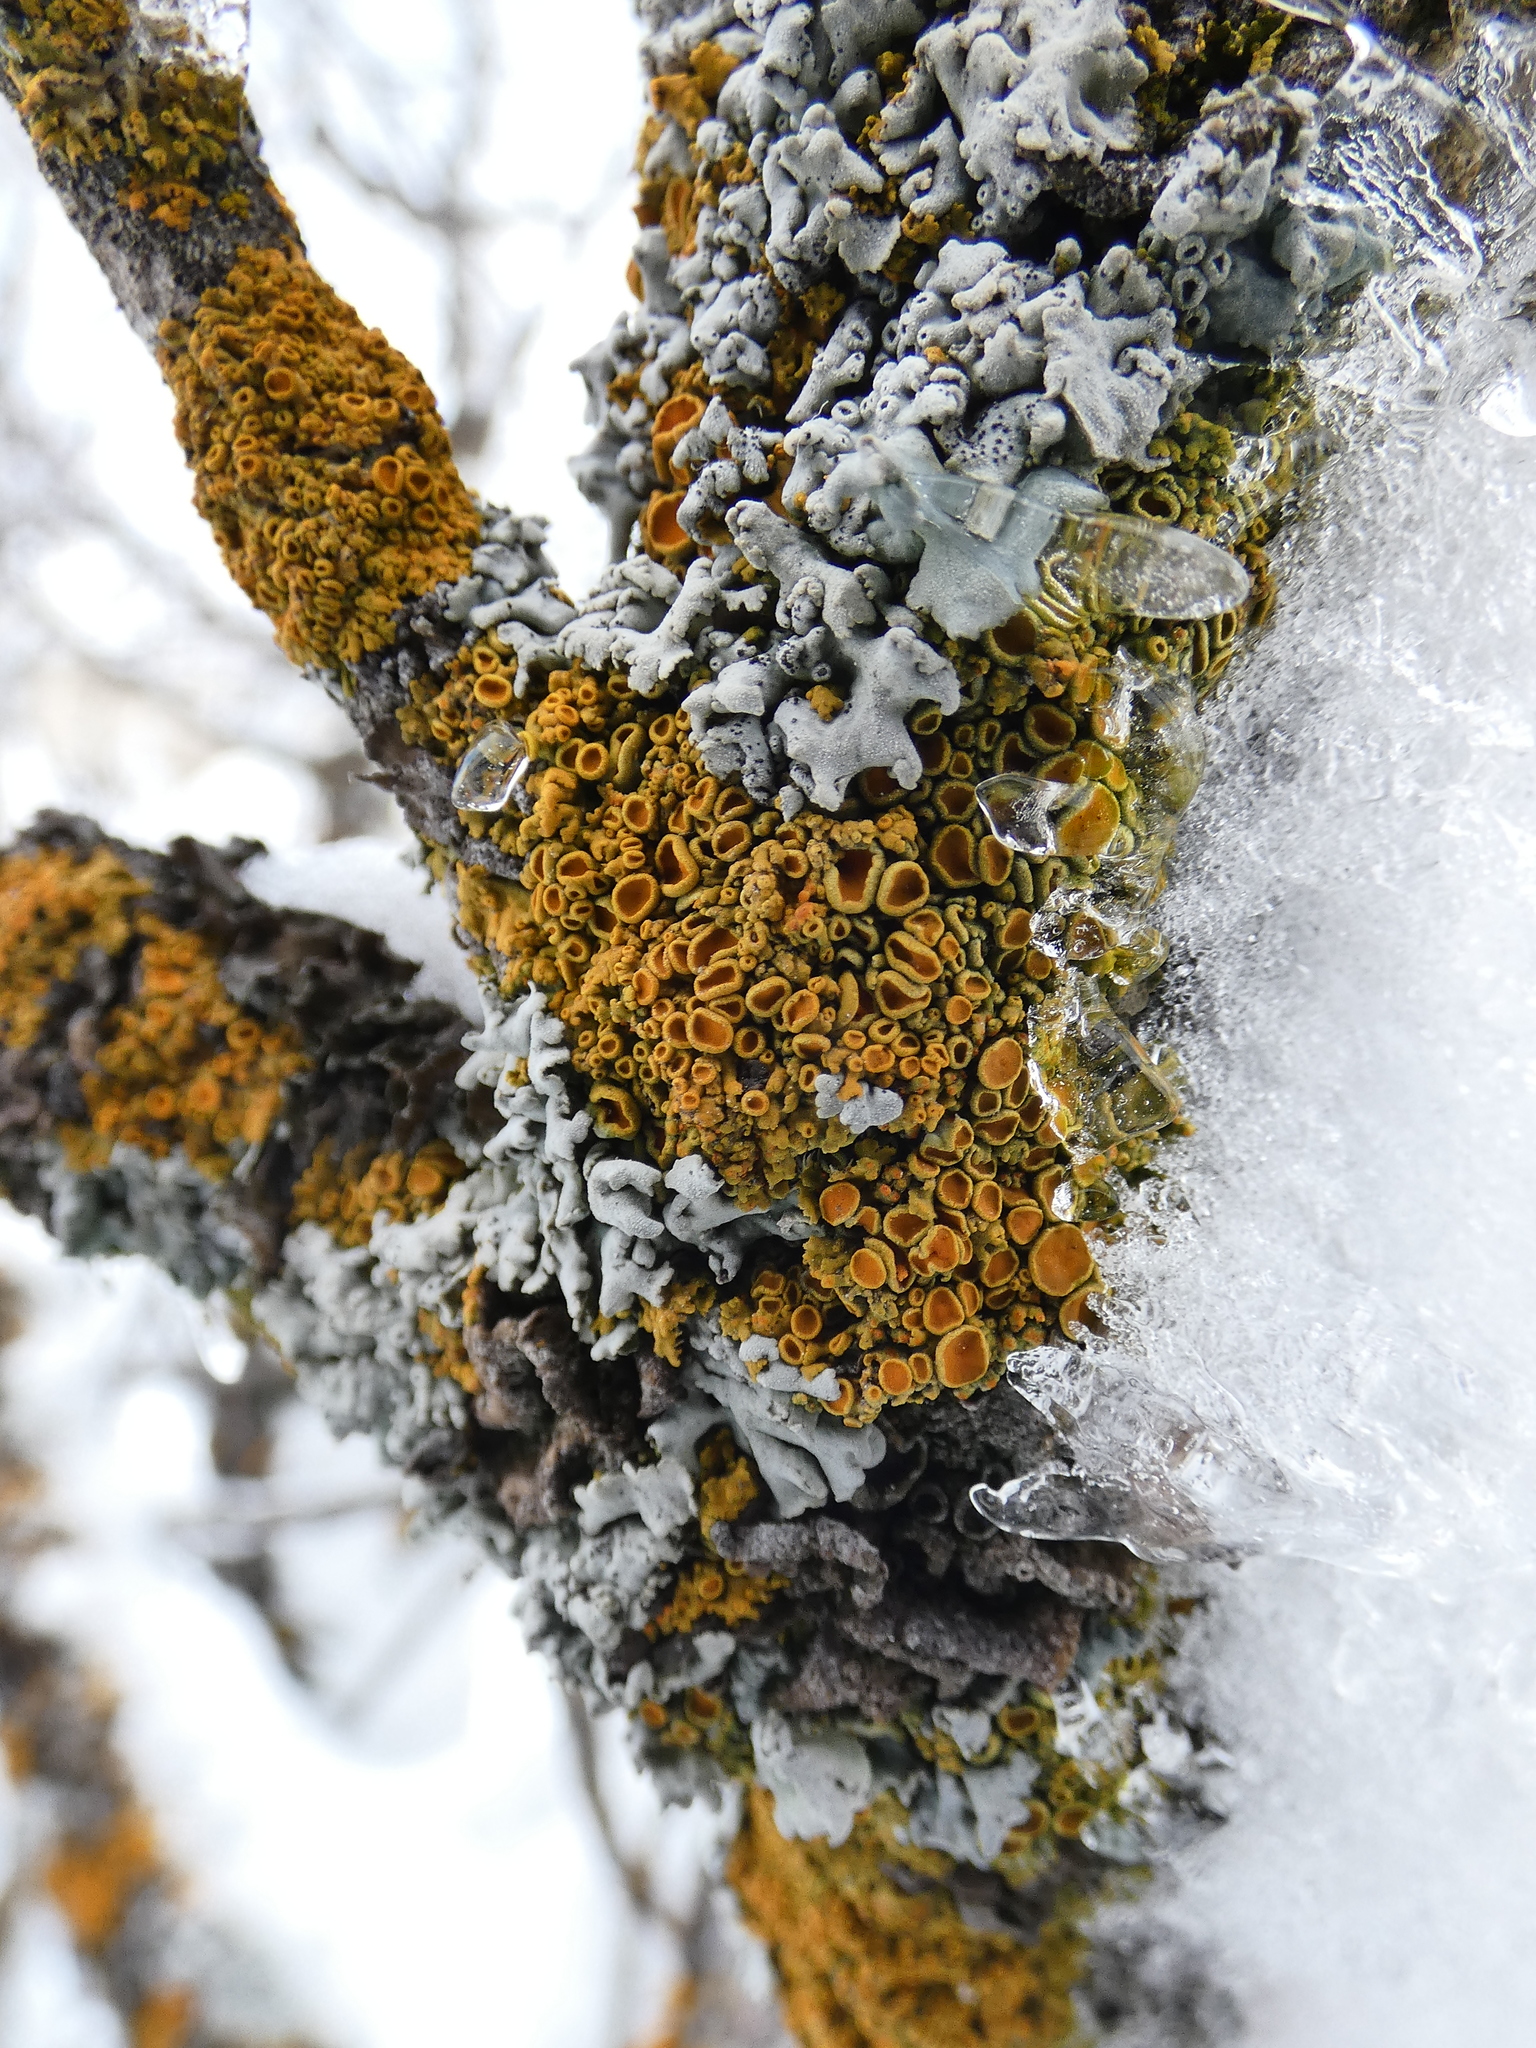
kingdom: Fungi
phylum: Ascomycota
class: Lecanoromycetes
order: Teloschistales
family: Teloschistaceae
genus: Xanthoria
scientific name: Xanthoria elegans
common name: Elegant sunburst lichen
